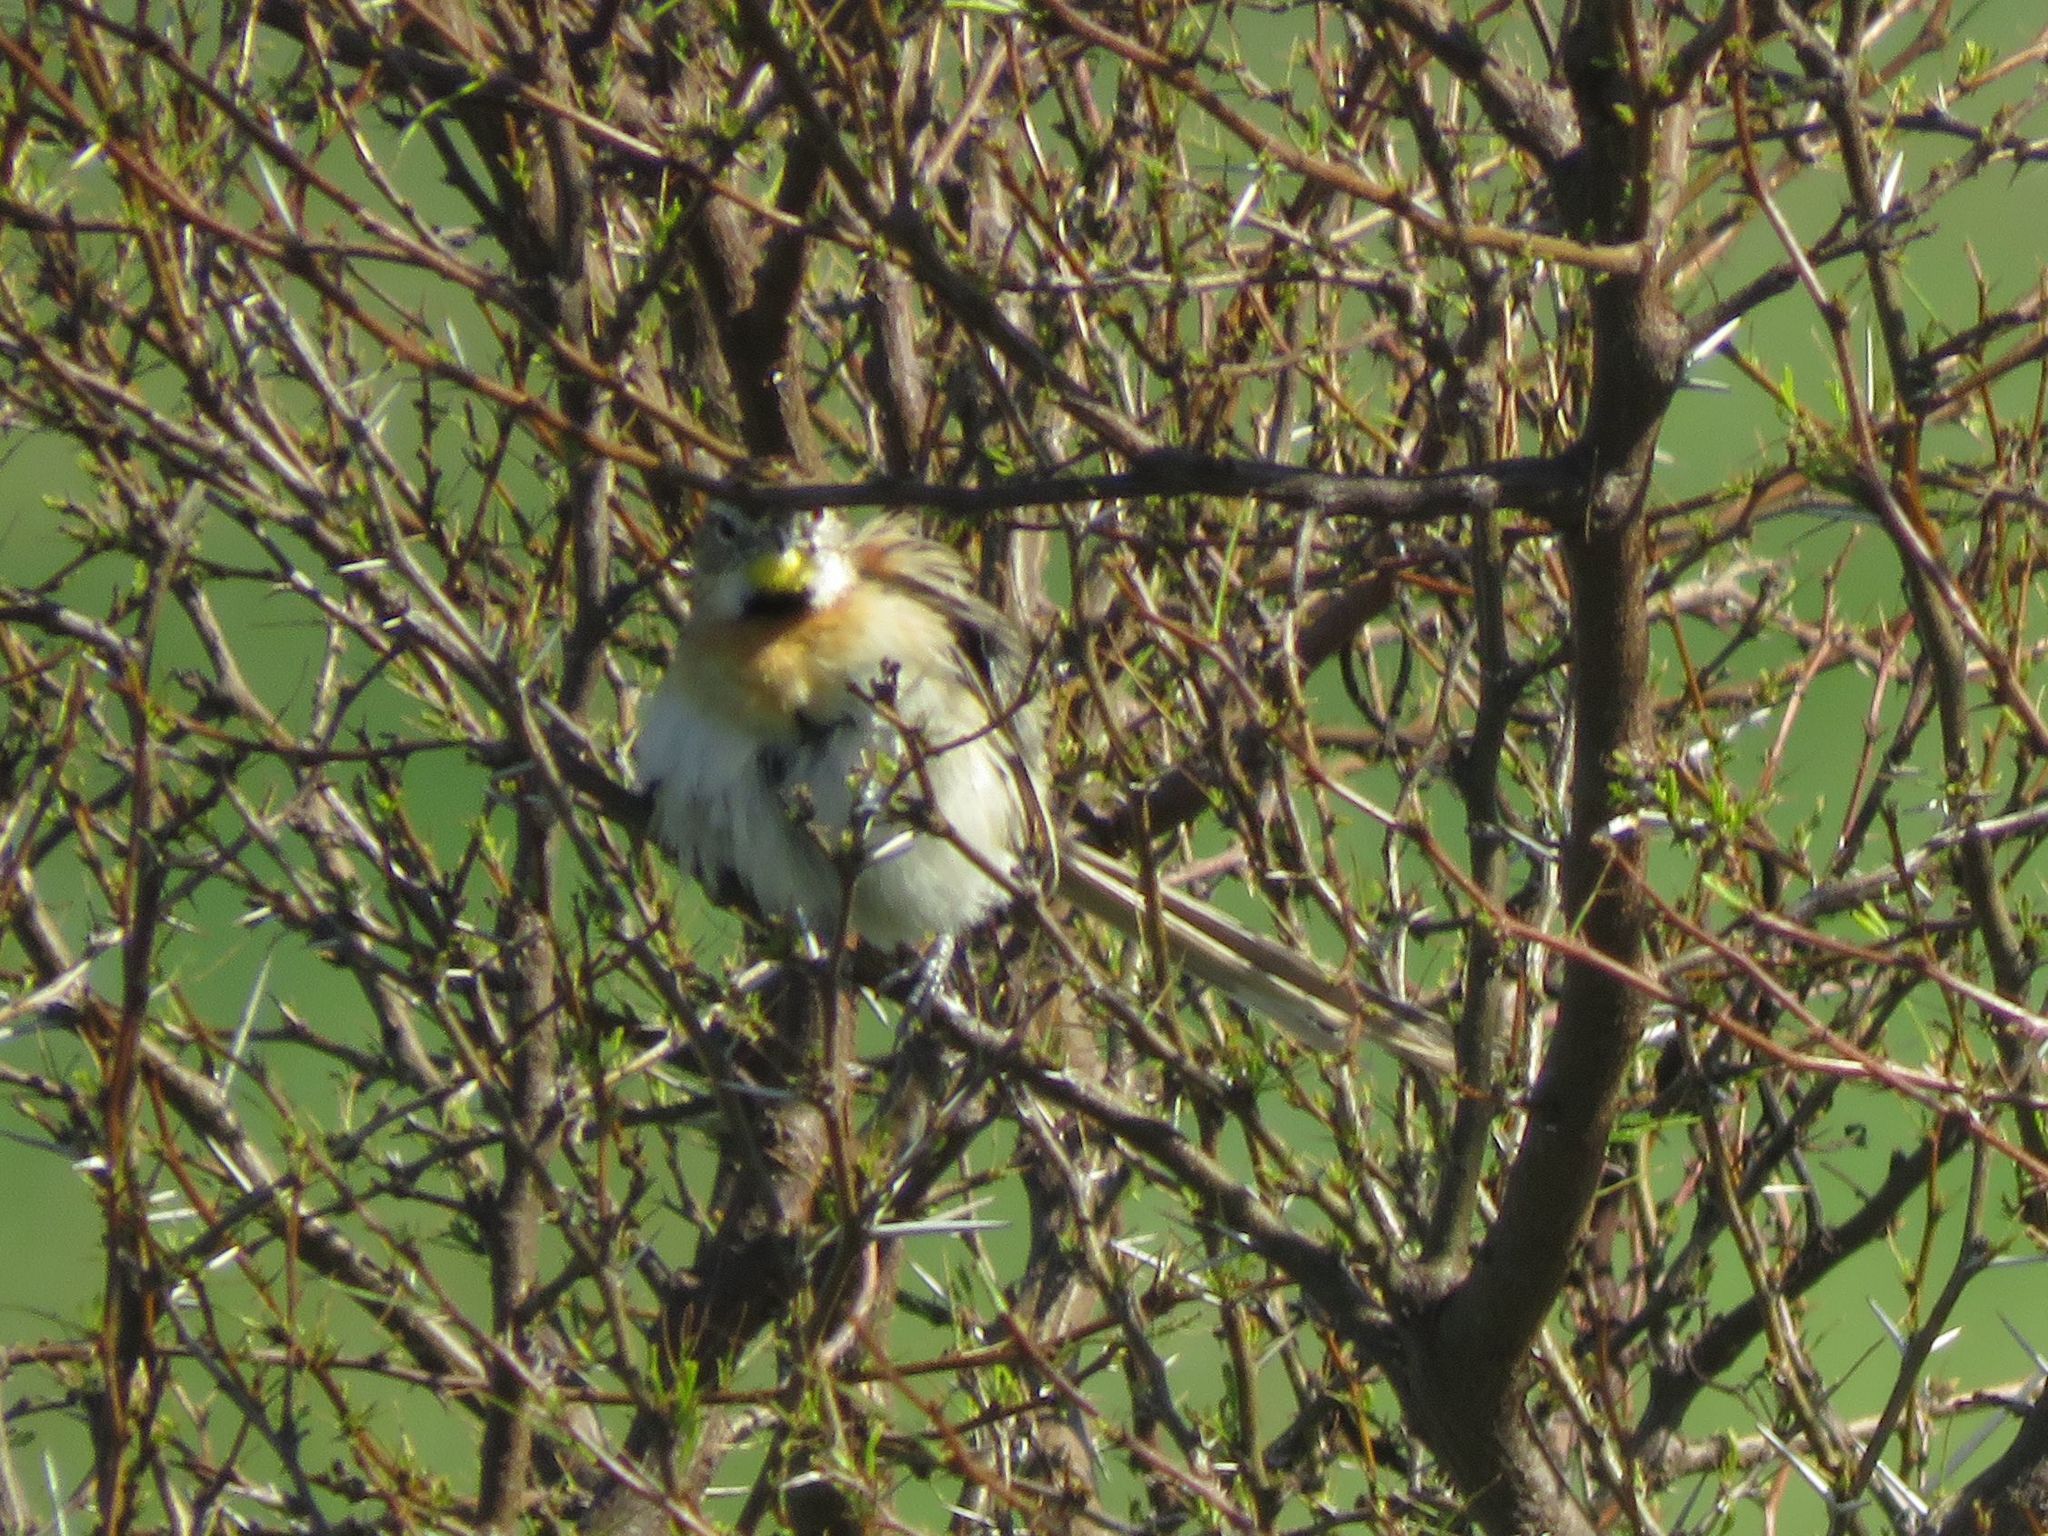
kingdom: Animalia
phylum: Chordata
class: Aves
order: Passeriformes
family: Furnariidae
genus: Schoeniophylax
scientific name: Schoeniophylax phryganophilus
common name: Chotoy spinetail
